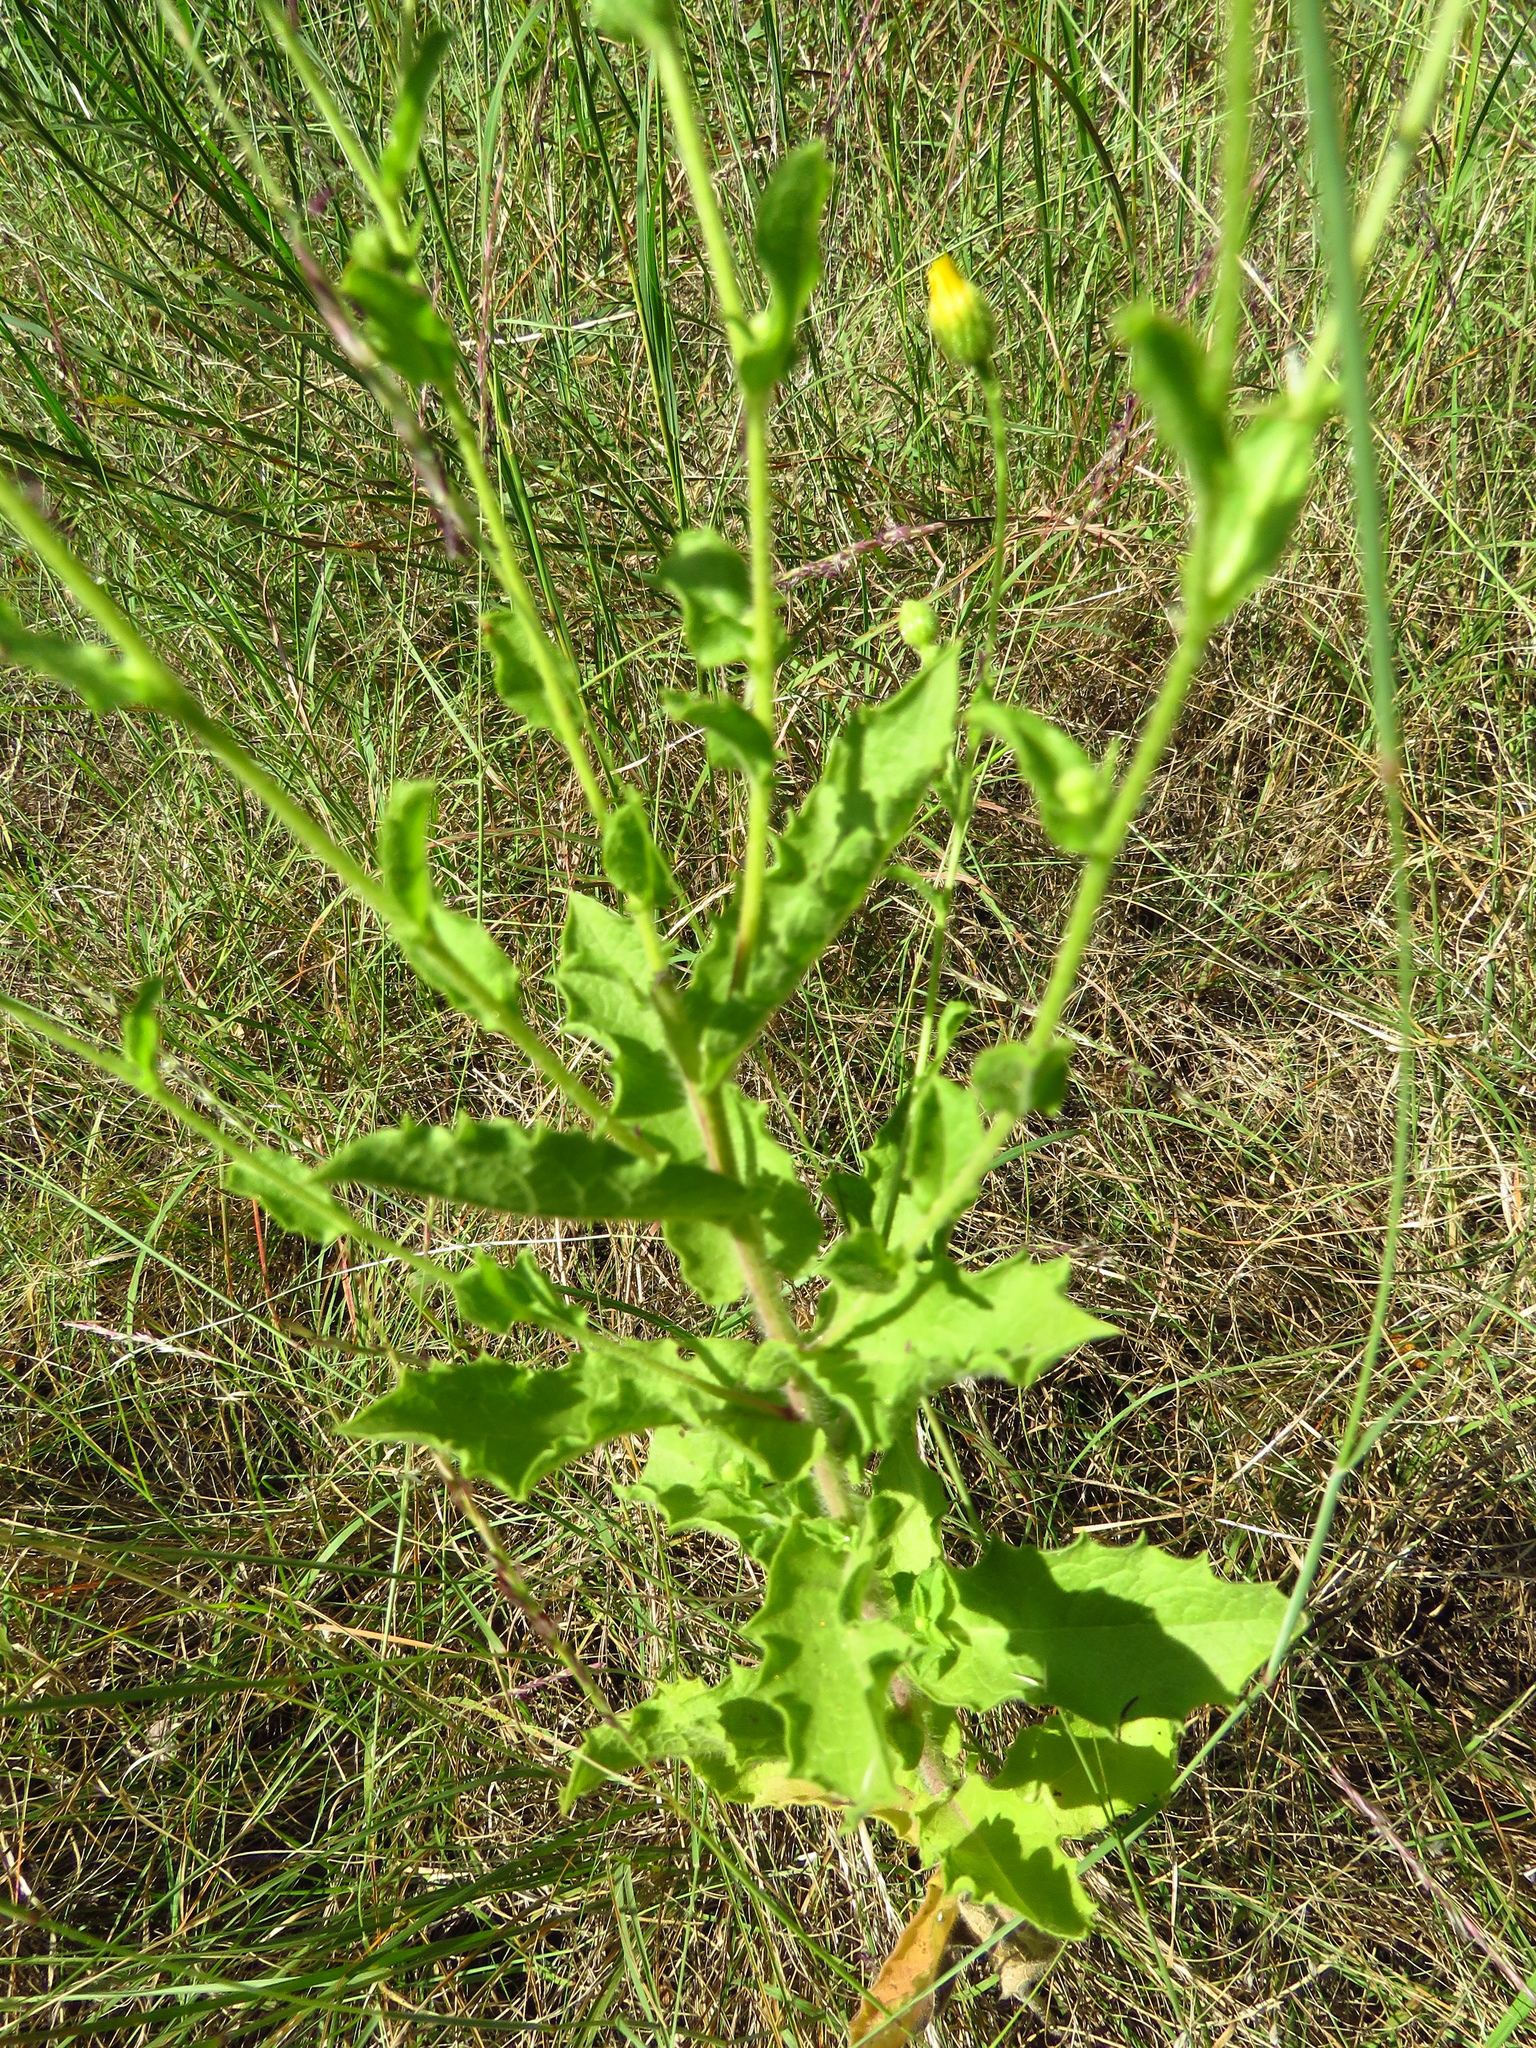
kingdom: Plantae
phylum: Tracheophyta
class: Magnoliopsida
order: Asterales
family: Asteraceae
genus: Heterotheca
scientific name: Heterotheca subaxillaris
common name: Camphorweed
